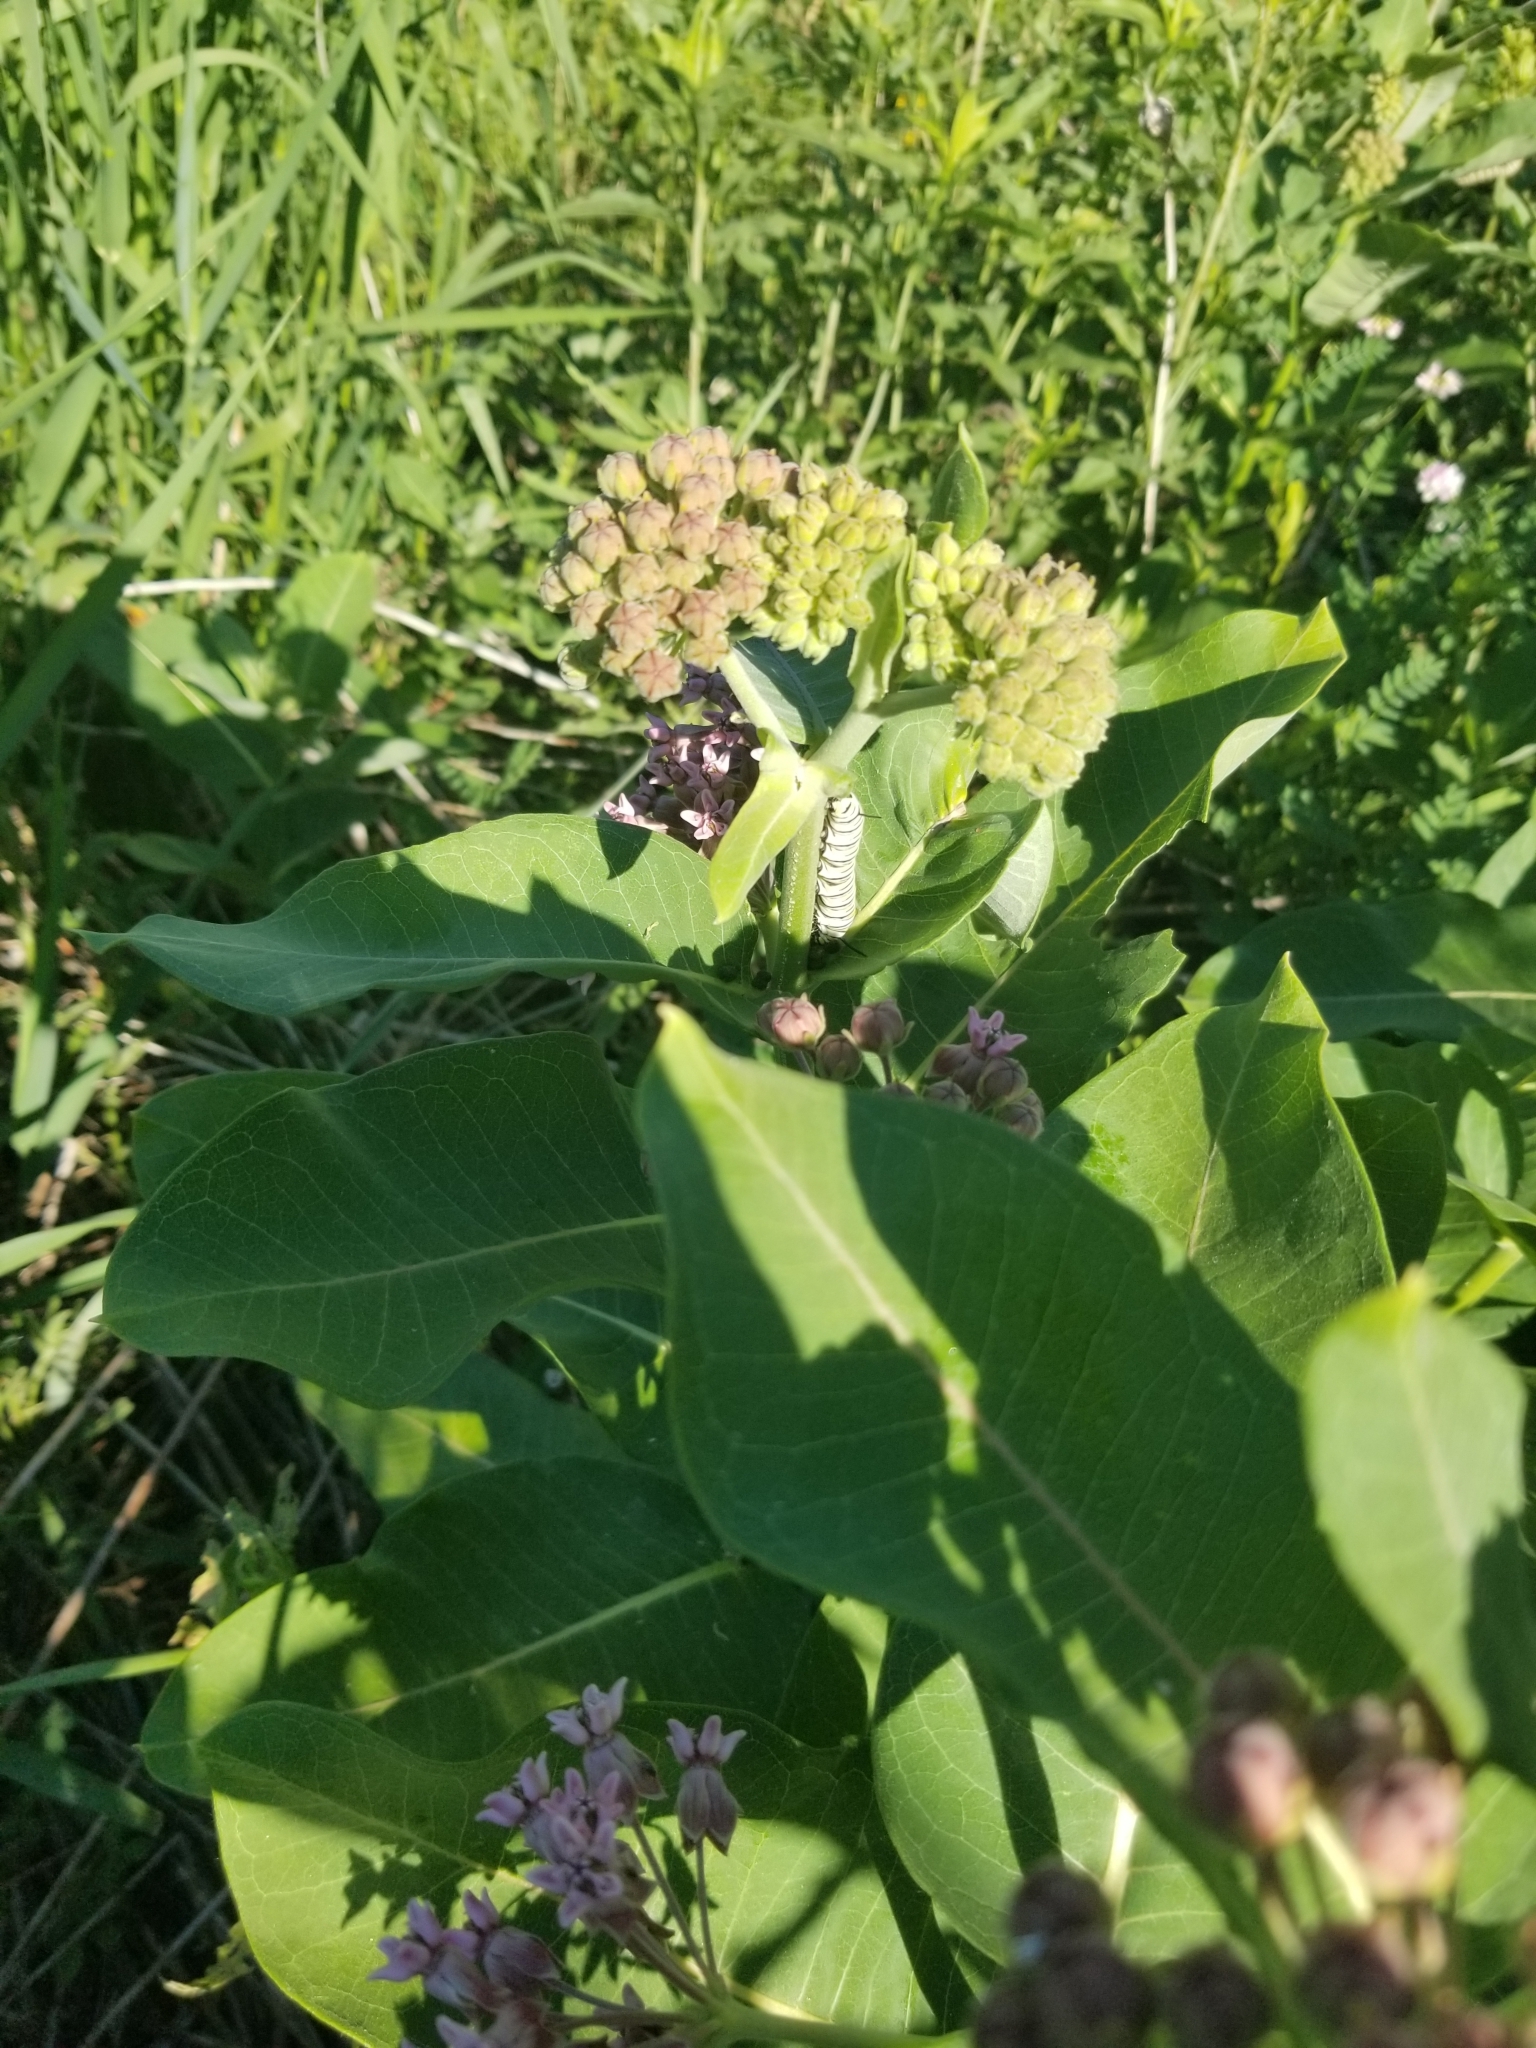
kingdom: Animalia
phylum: Arthropoda
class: Insecta
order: Lepidoptera
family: Nymphalidae
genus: Danaus
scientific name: Danaus plexippus
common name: Monarch
